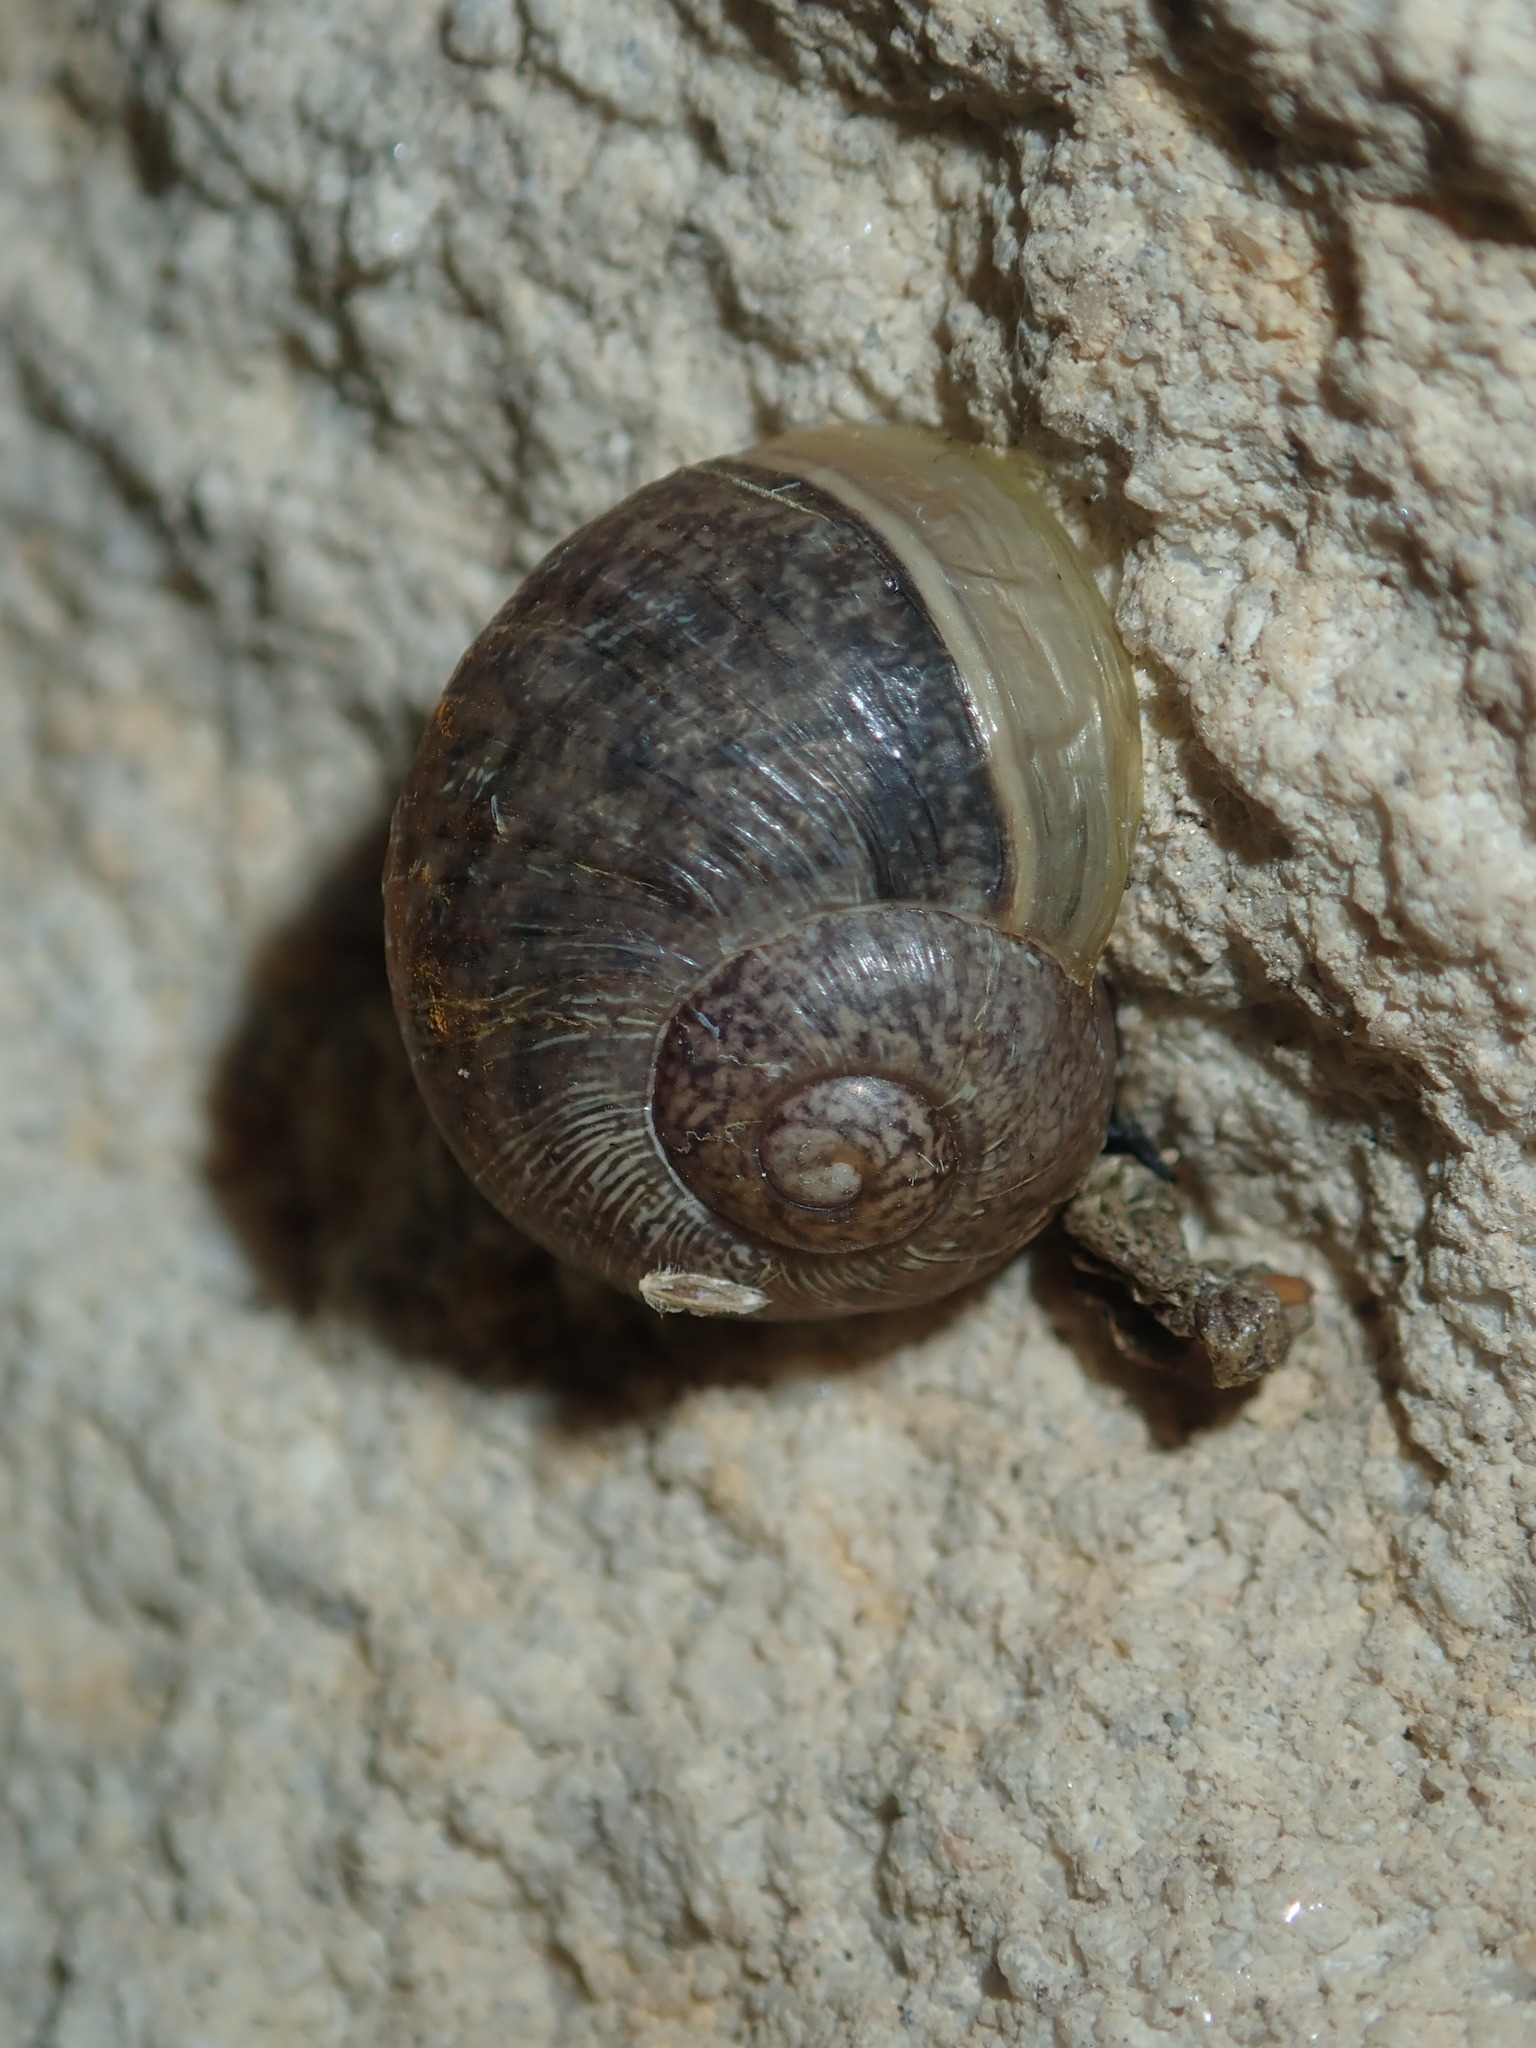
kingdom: Animalia
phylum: Mollusca
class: Gastropoda
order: Stylommatophora
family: Helicidae
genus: Cornu
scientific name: Cornu aspersum
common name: Brown garden snail
